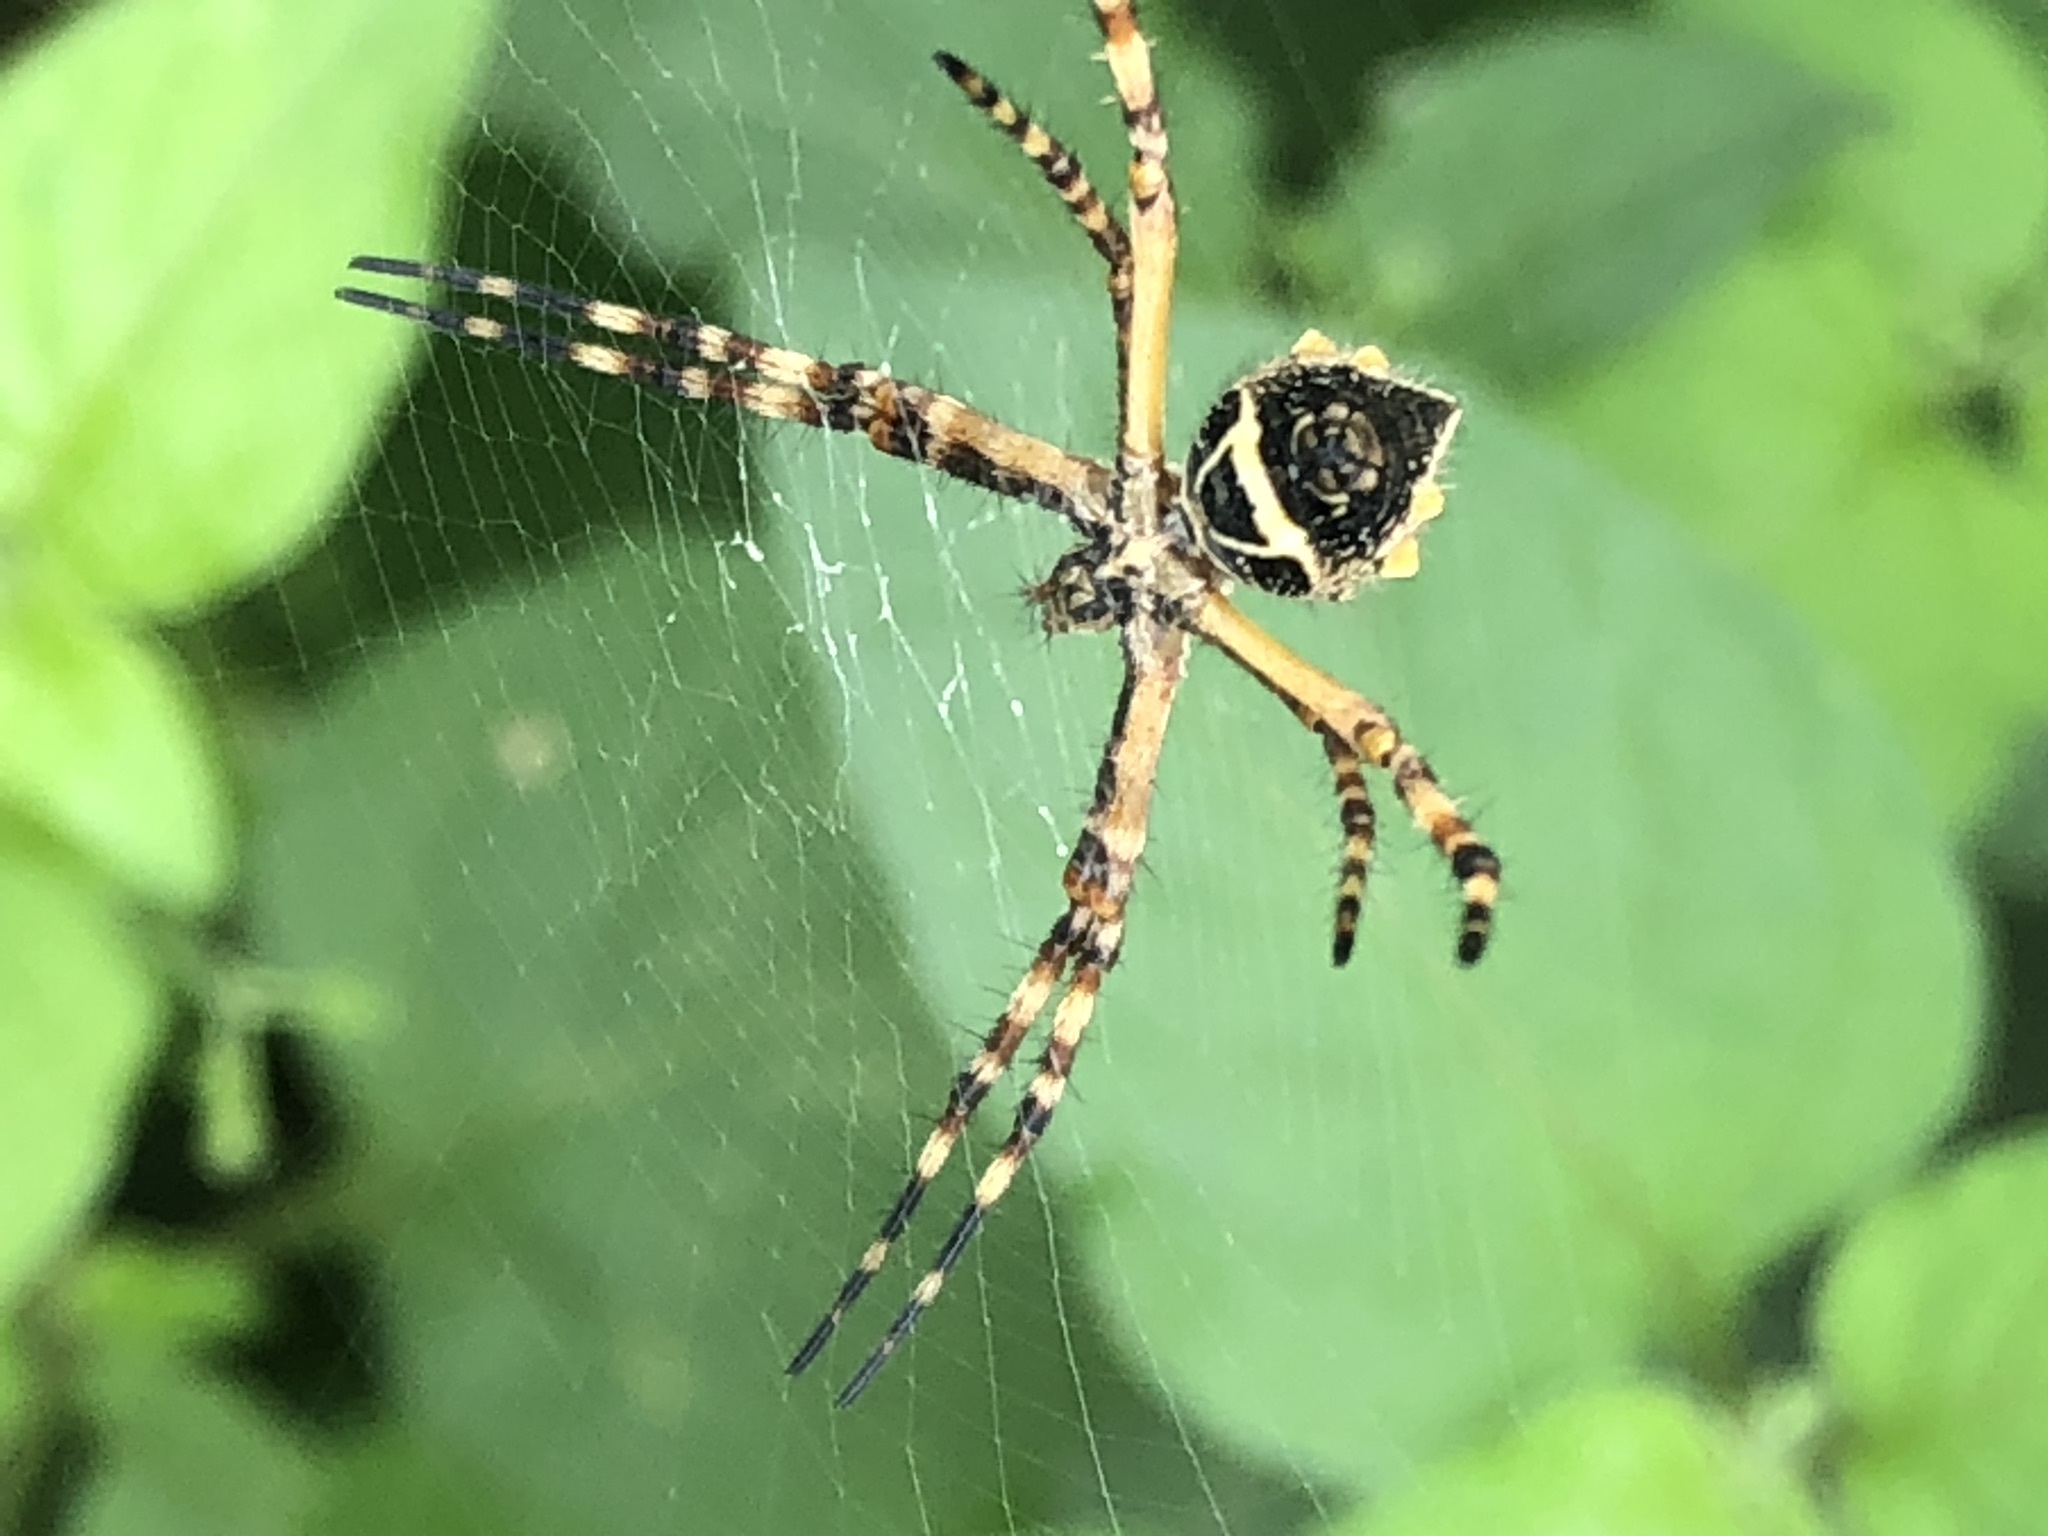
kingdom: Animalia
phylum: Arthropoda
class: Arachnida
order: Araneae
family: Araneidae
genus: Argiope
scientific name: Argiope argentata
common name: Orb weavers
